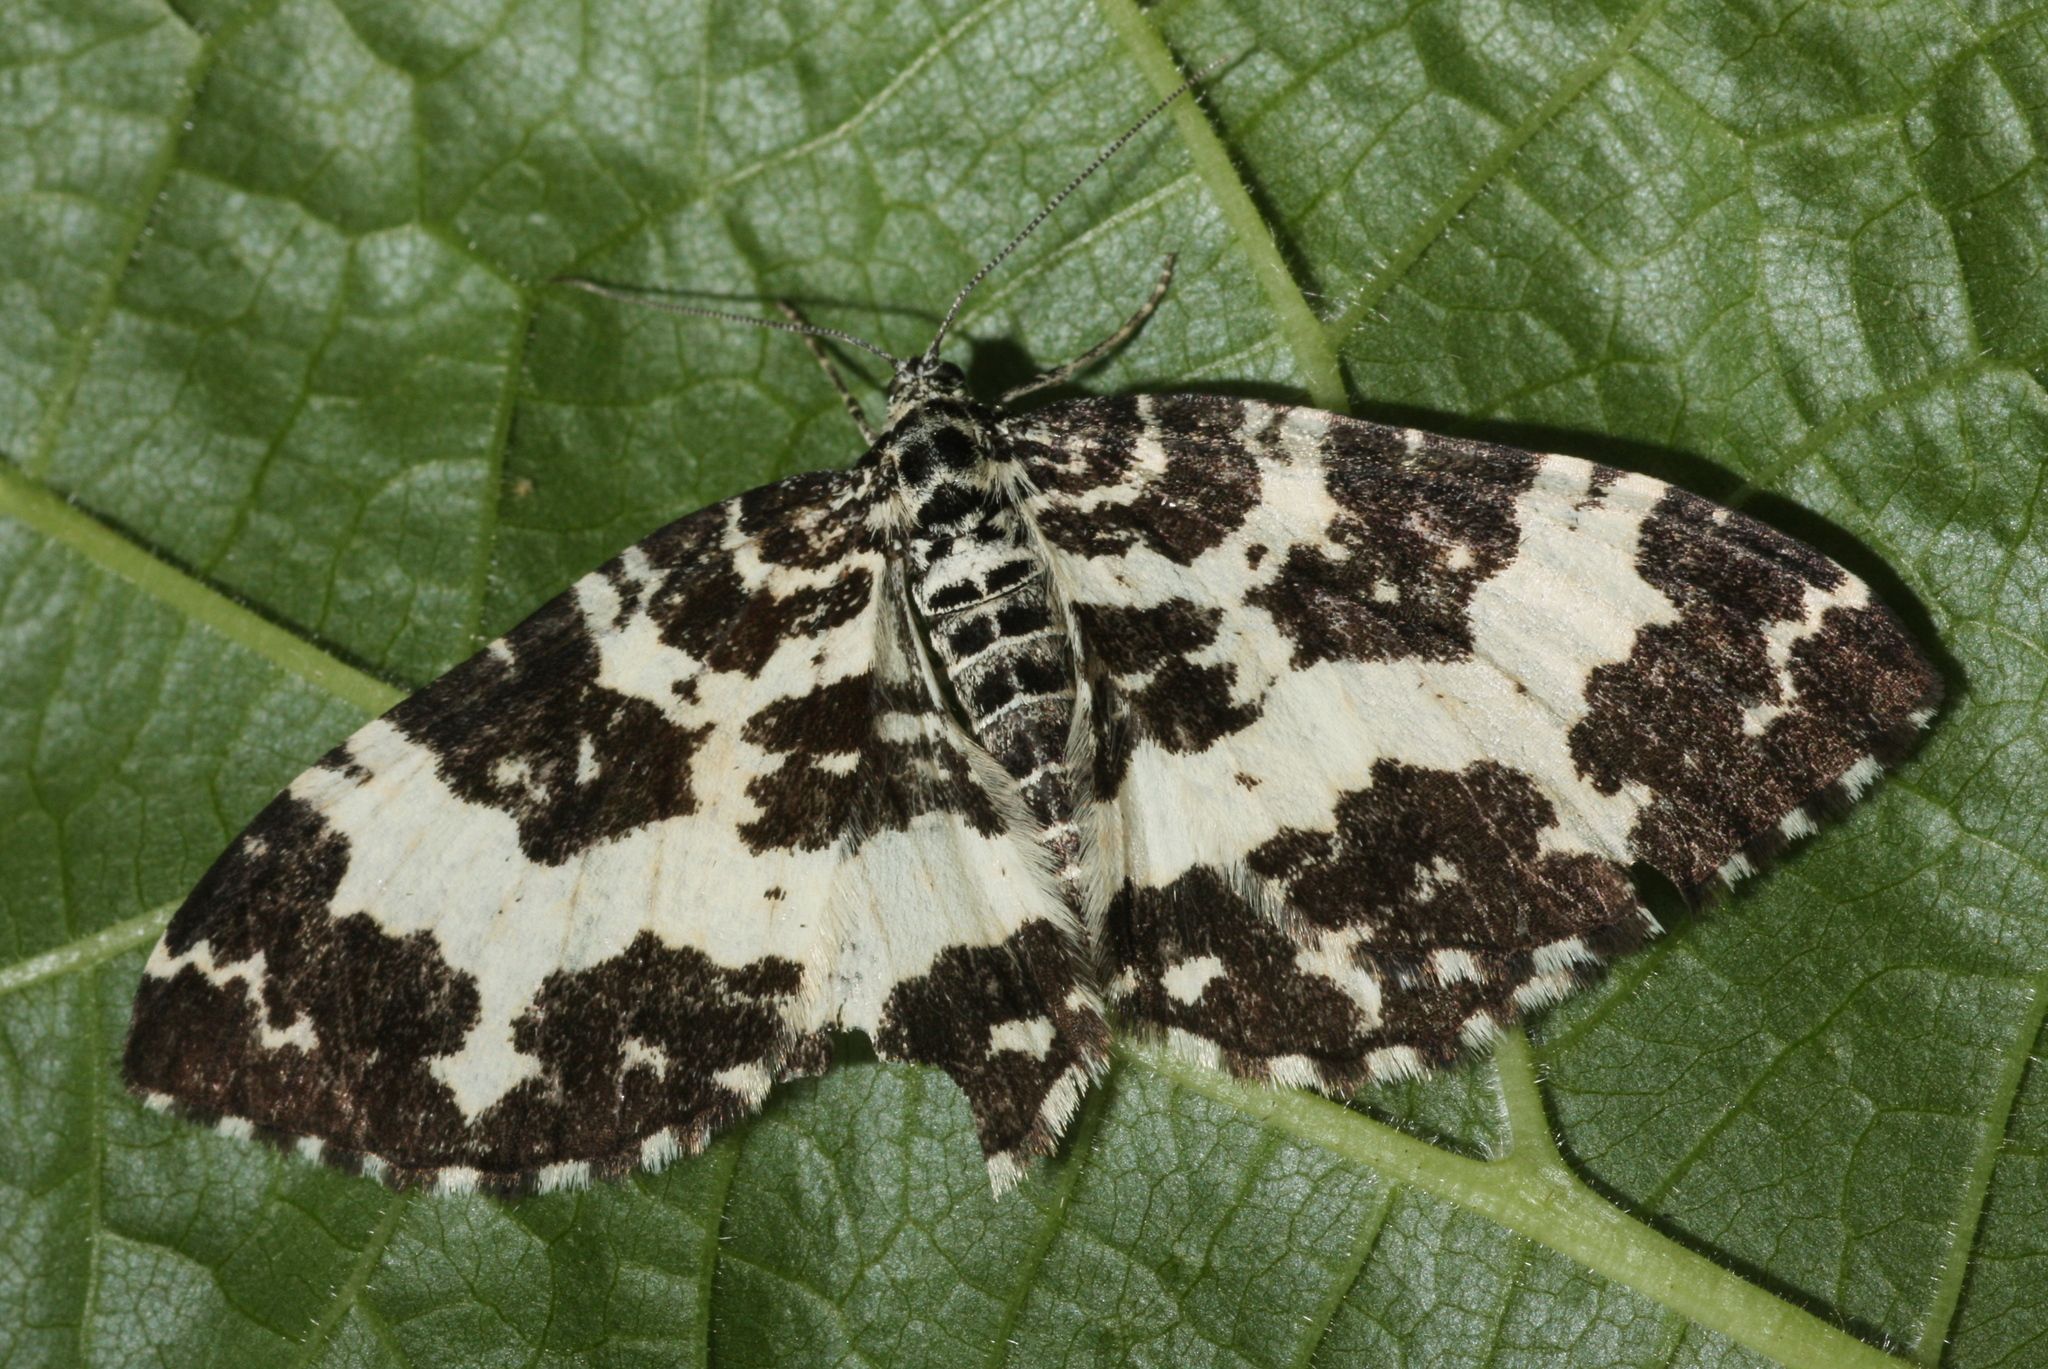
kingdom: Animalia
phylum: Arthropoda
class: Insecta
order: Lepidoptera
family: Geometridae
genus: Rheumaptera
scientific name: Rheumaptera hastata
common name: Argent & sable
